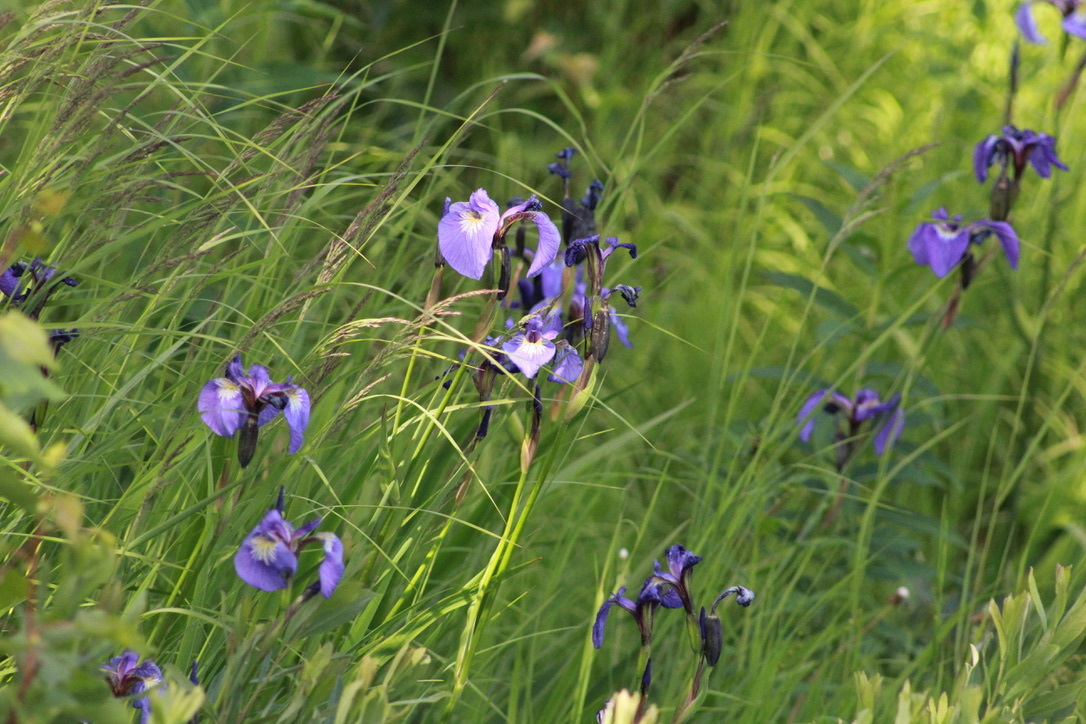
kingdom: Plantae
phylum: Tracheophyta
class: Liliopsida
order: Asparagales
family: Iridaceae
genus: Iris
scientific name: Iris setosa
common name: Arctic blue flag
